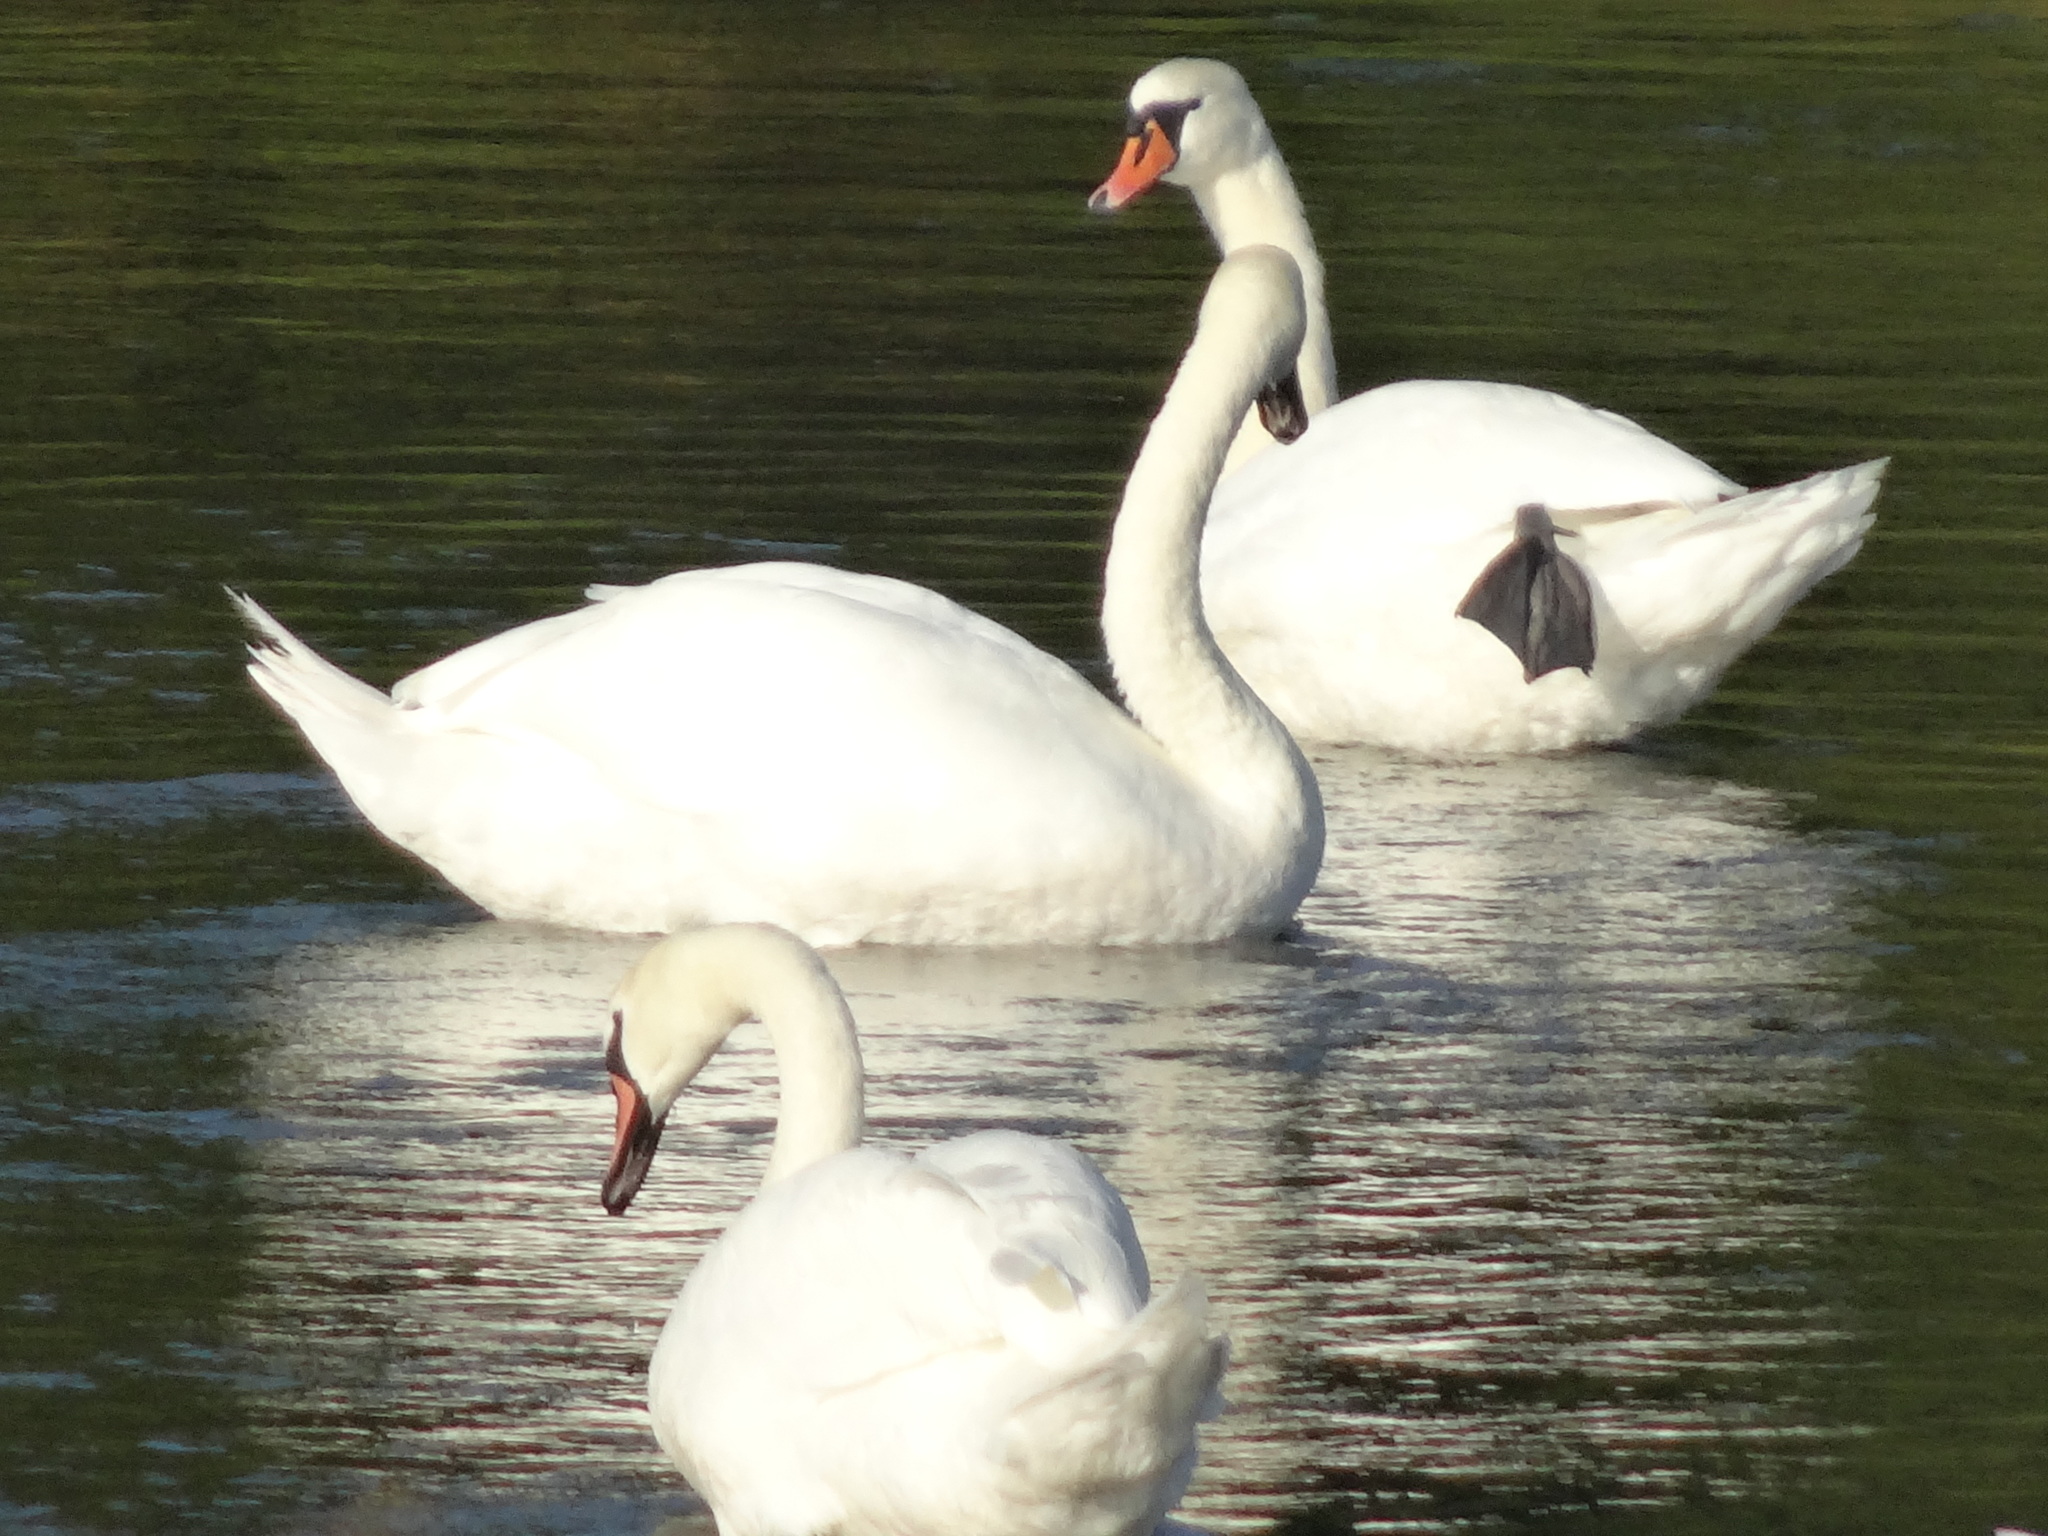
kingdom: Animalia
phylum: Chordata
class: Aves
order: Anseriformes
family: Anatidae
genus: Cygnus
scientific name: Cygnus olor
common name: Mute swan
